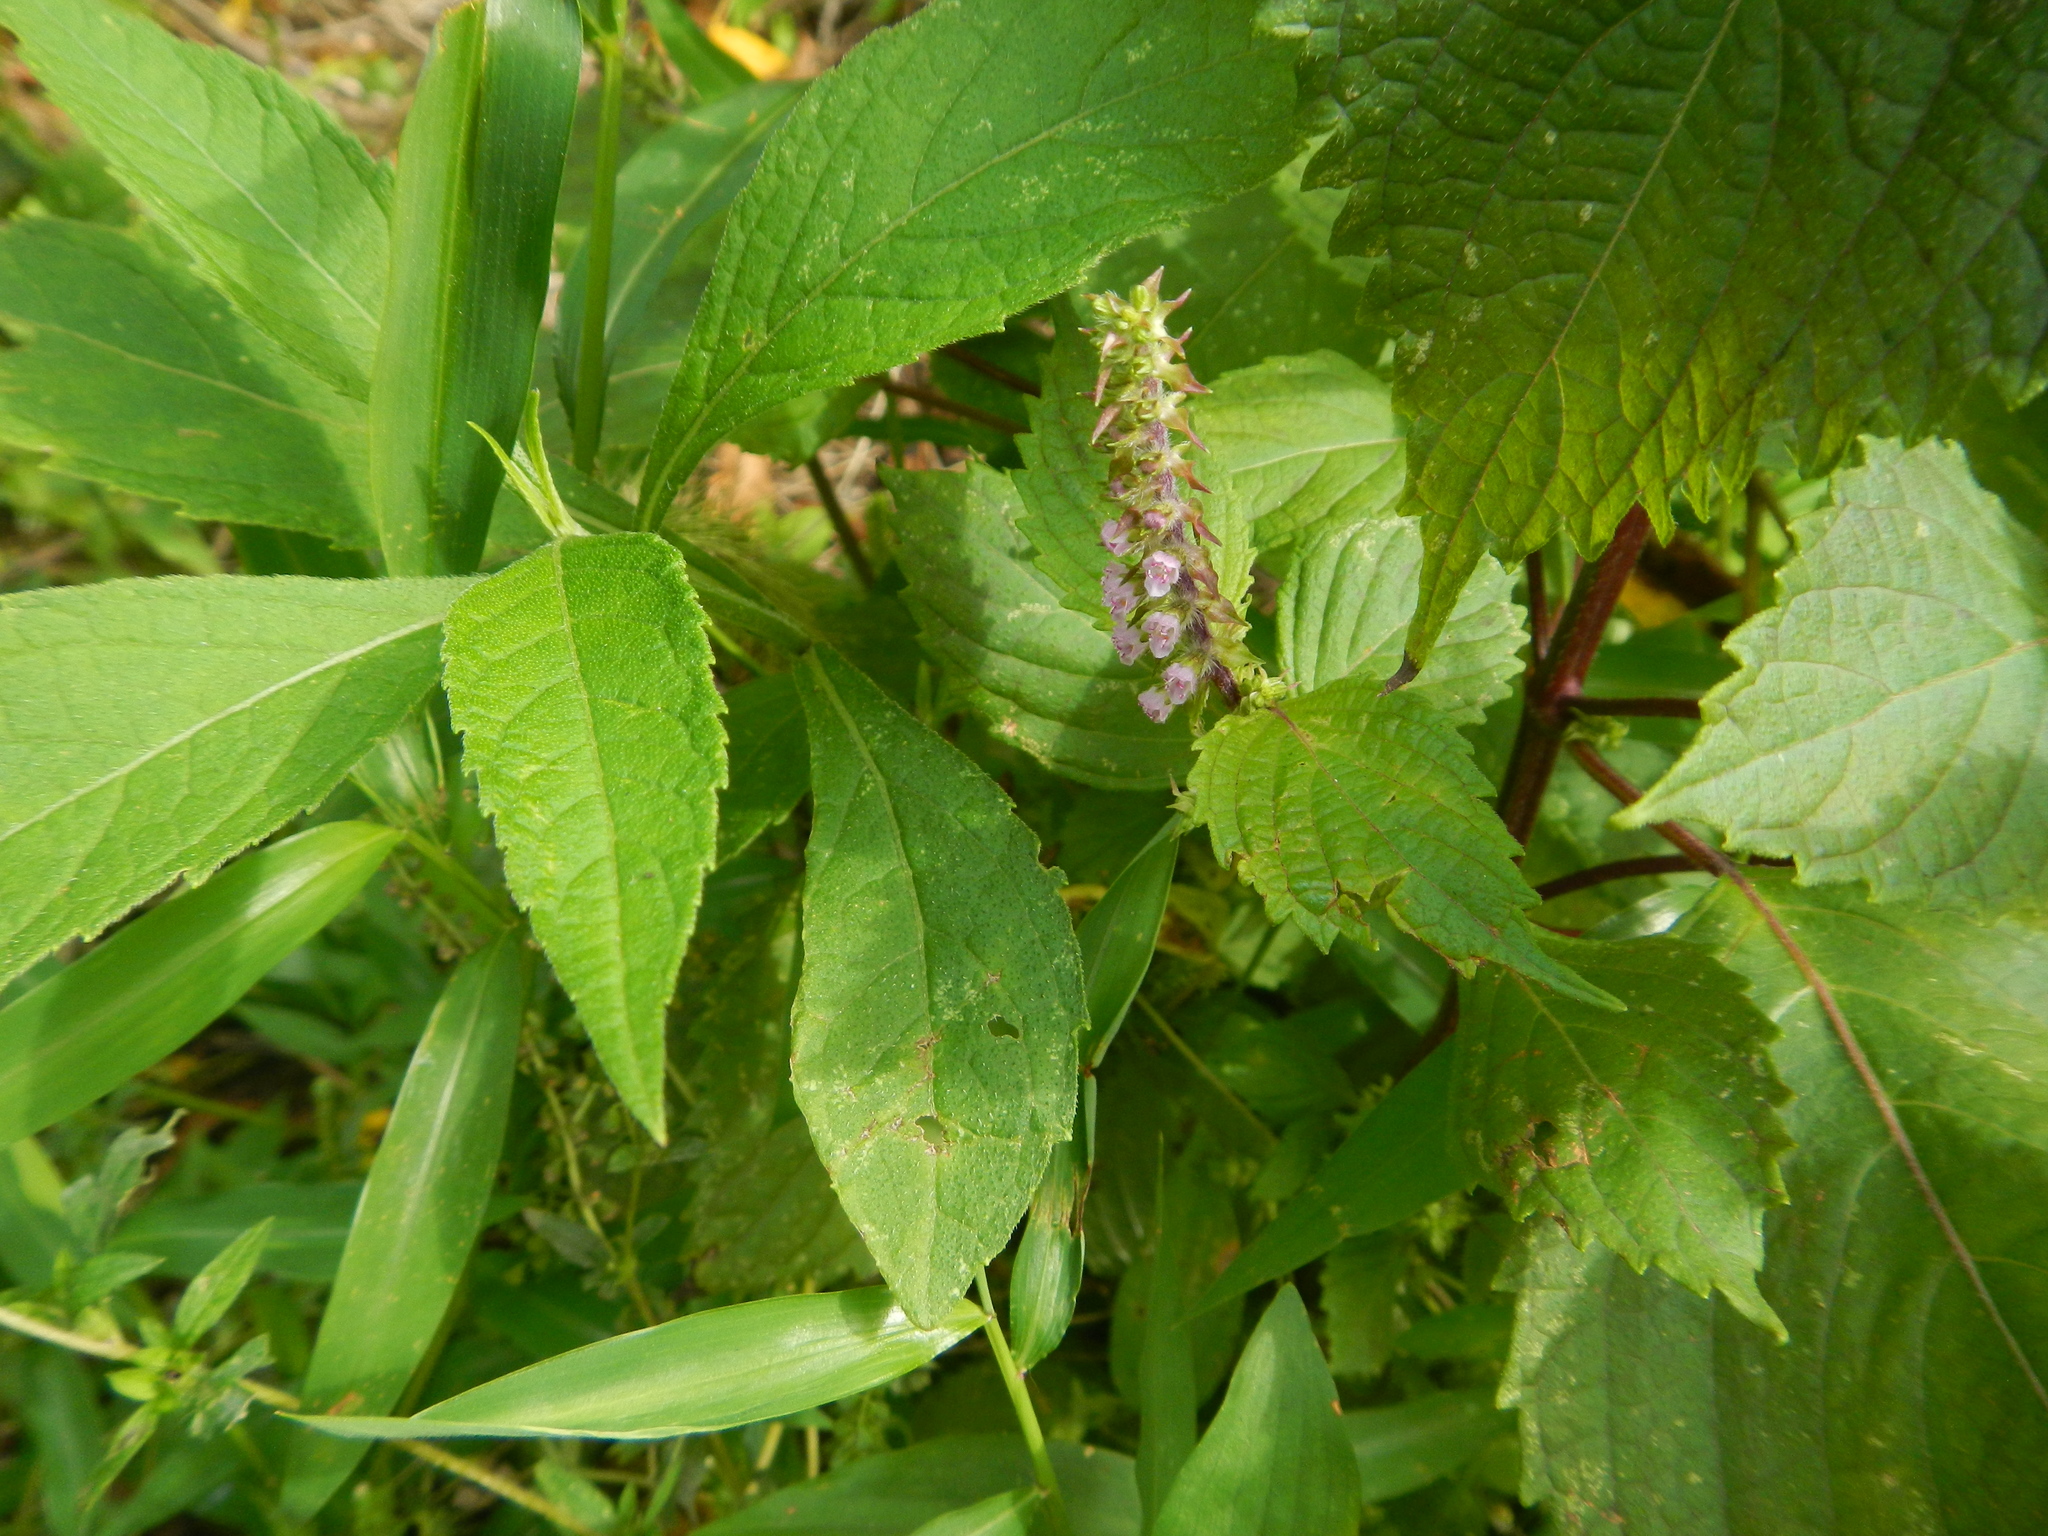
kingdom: Plantae
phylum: Tracheophyta
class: Magnoliopsida
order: Lamiales
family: Lamiaceae
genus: Perilla
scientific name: Perilla frutescens
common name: Perilla
